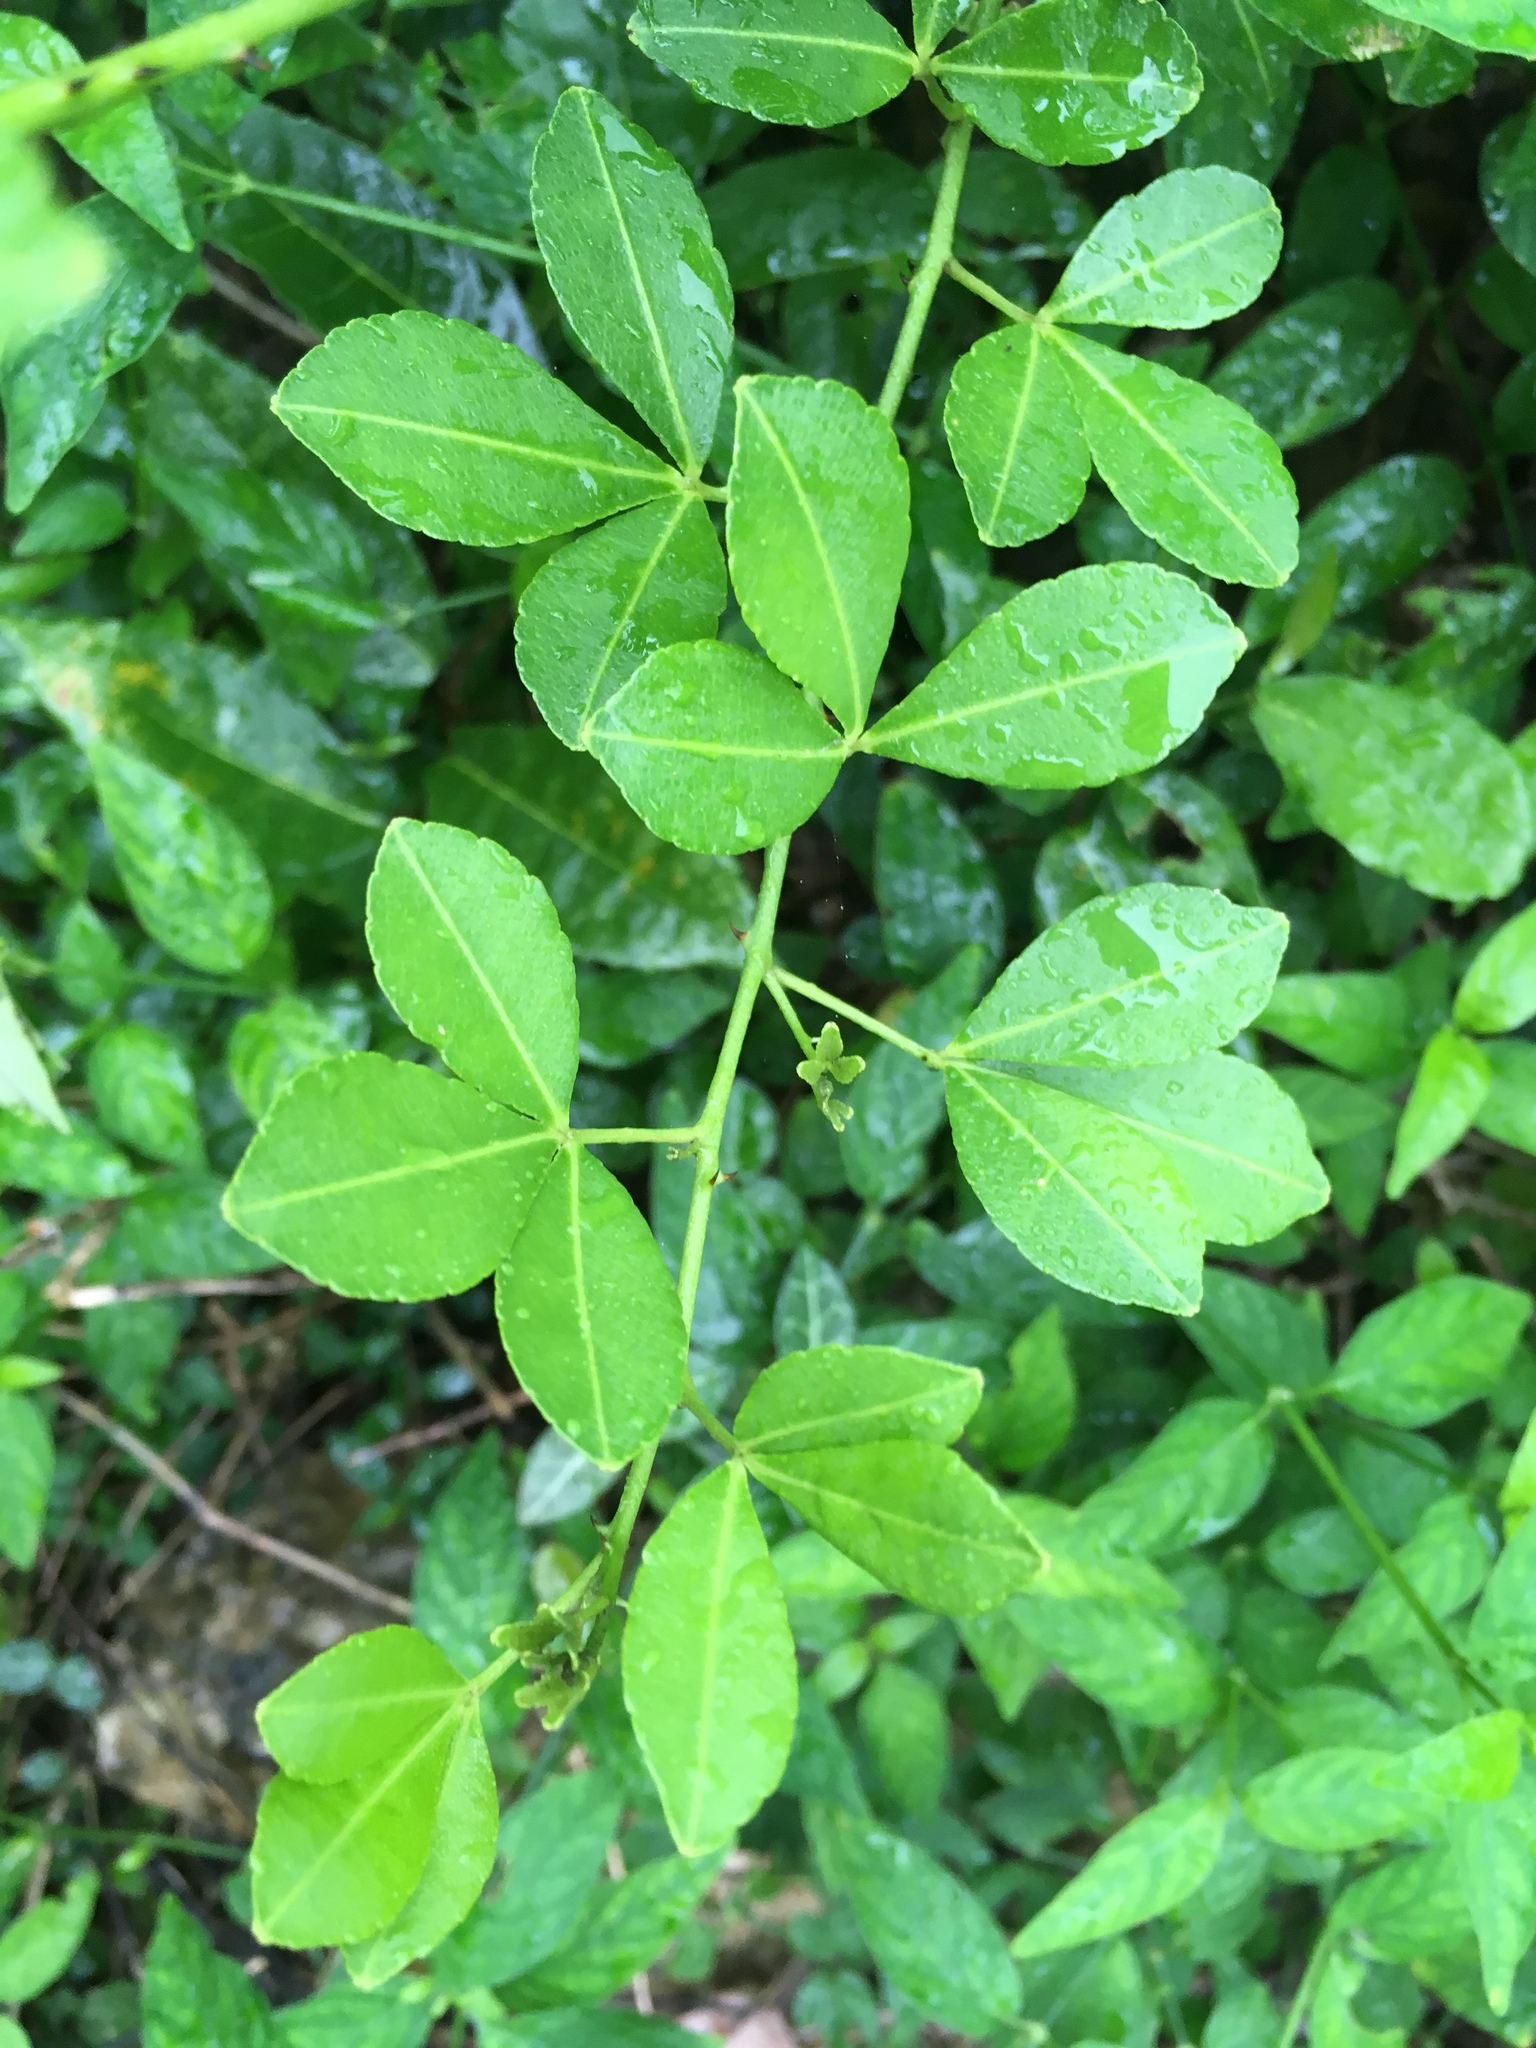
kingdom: Plantae
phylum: Tracheophyta
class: Magnoliopsida
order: Sapindales
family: Rutaceae
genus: Zanthoxylum
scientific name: Zanthoxylum asiaticum
